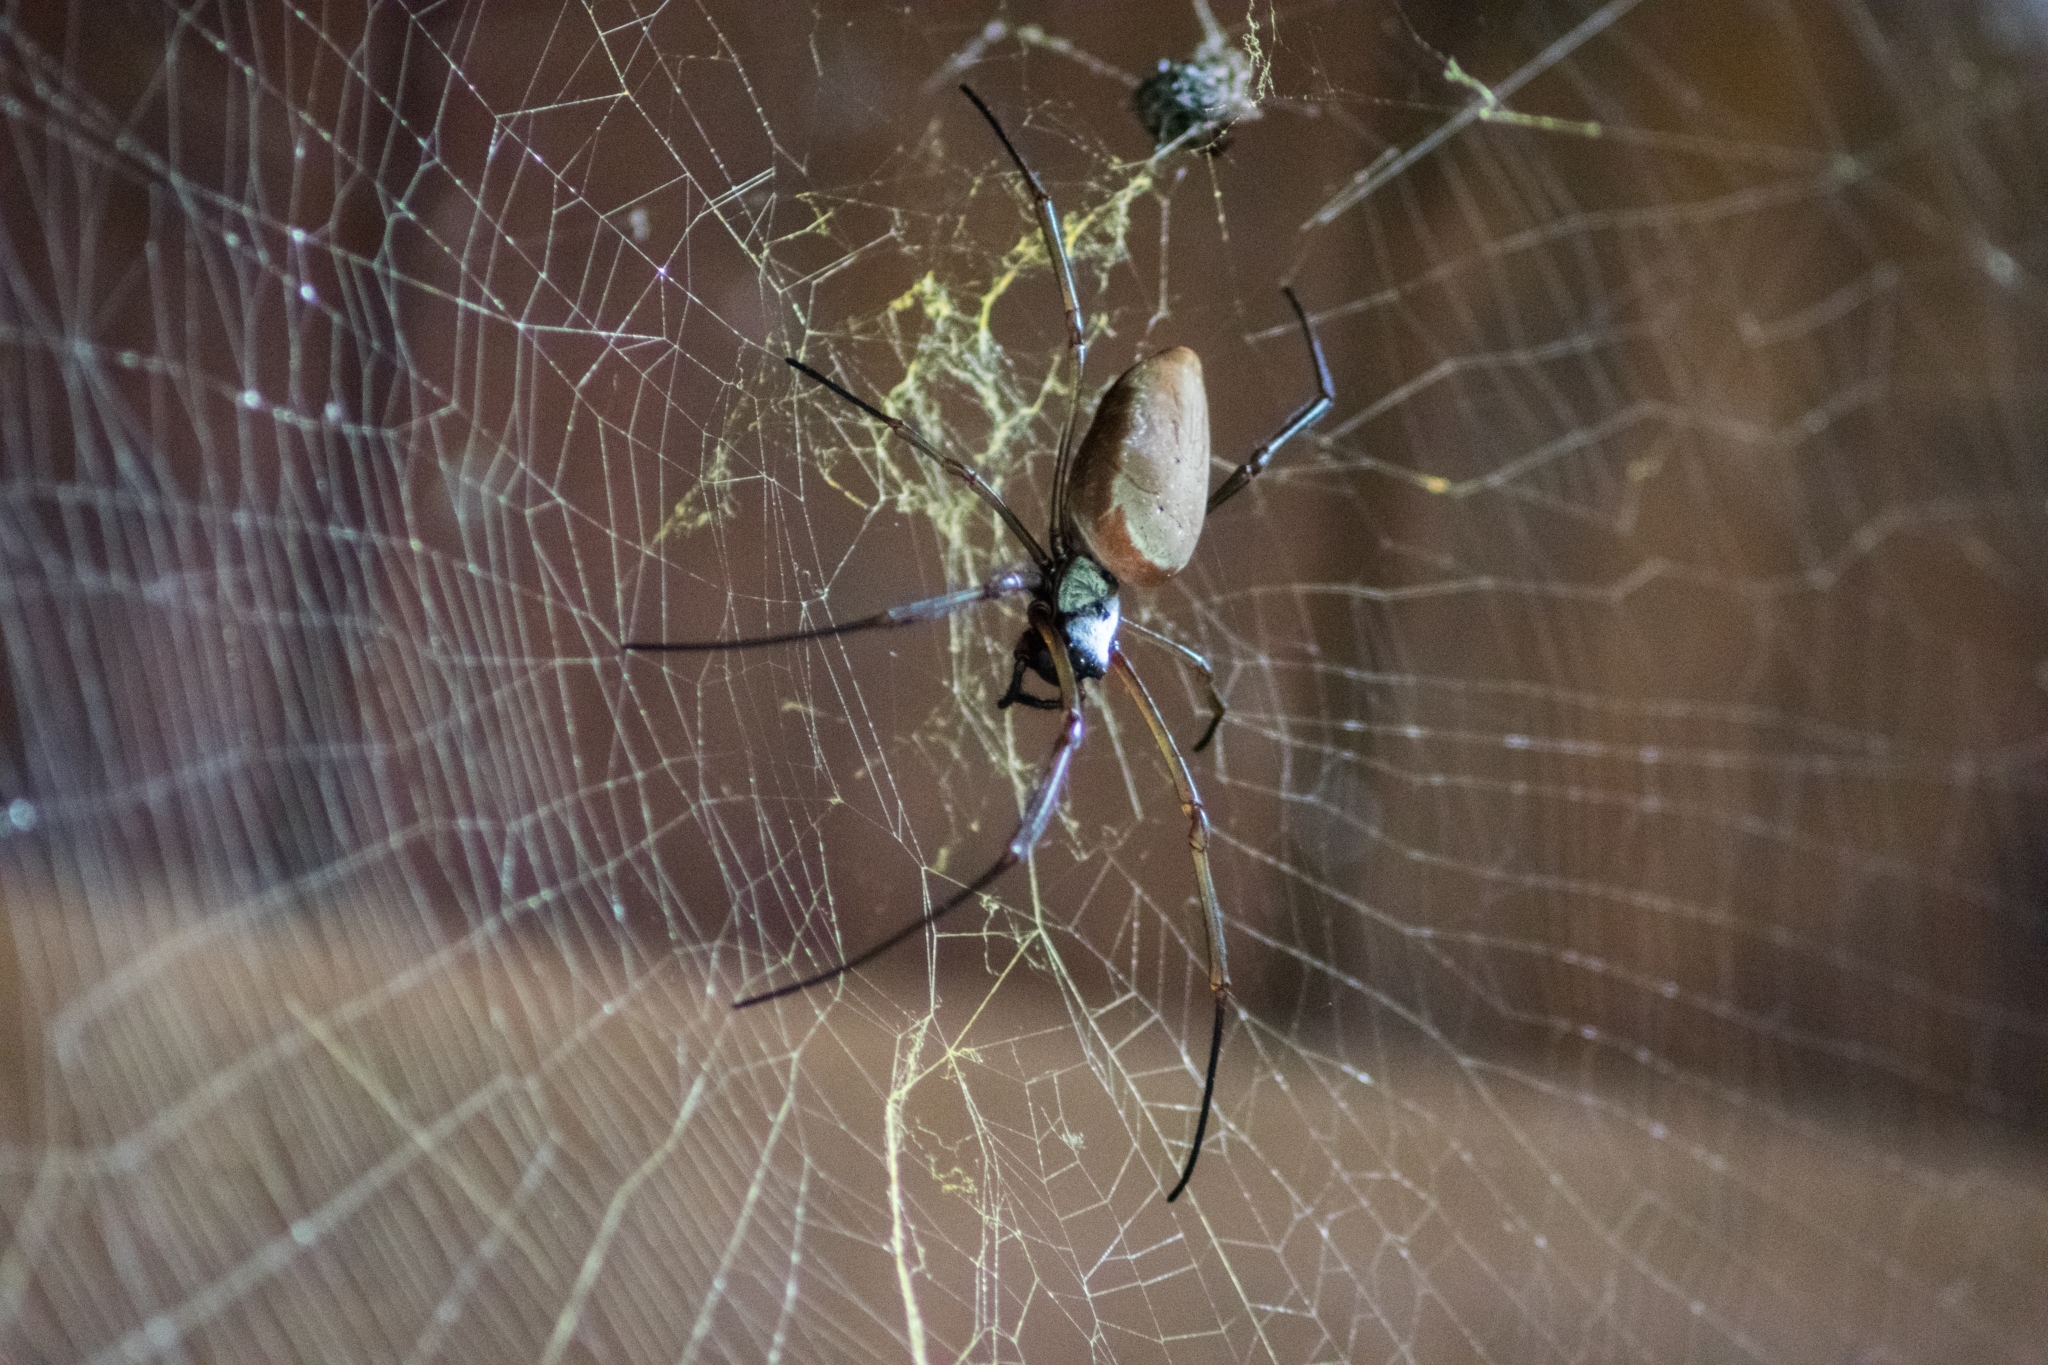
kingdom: Animalia
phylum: Arthropoda
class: Arachnida
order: Araneae
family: Araneidae
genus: Nephila
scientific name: Nephila cornuta
